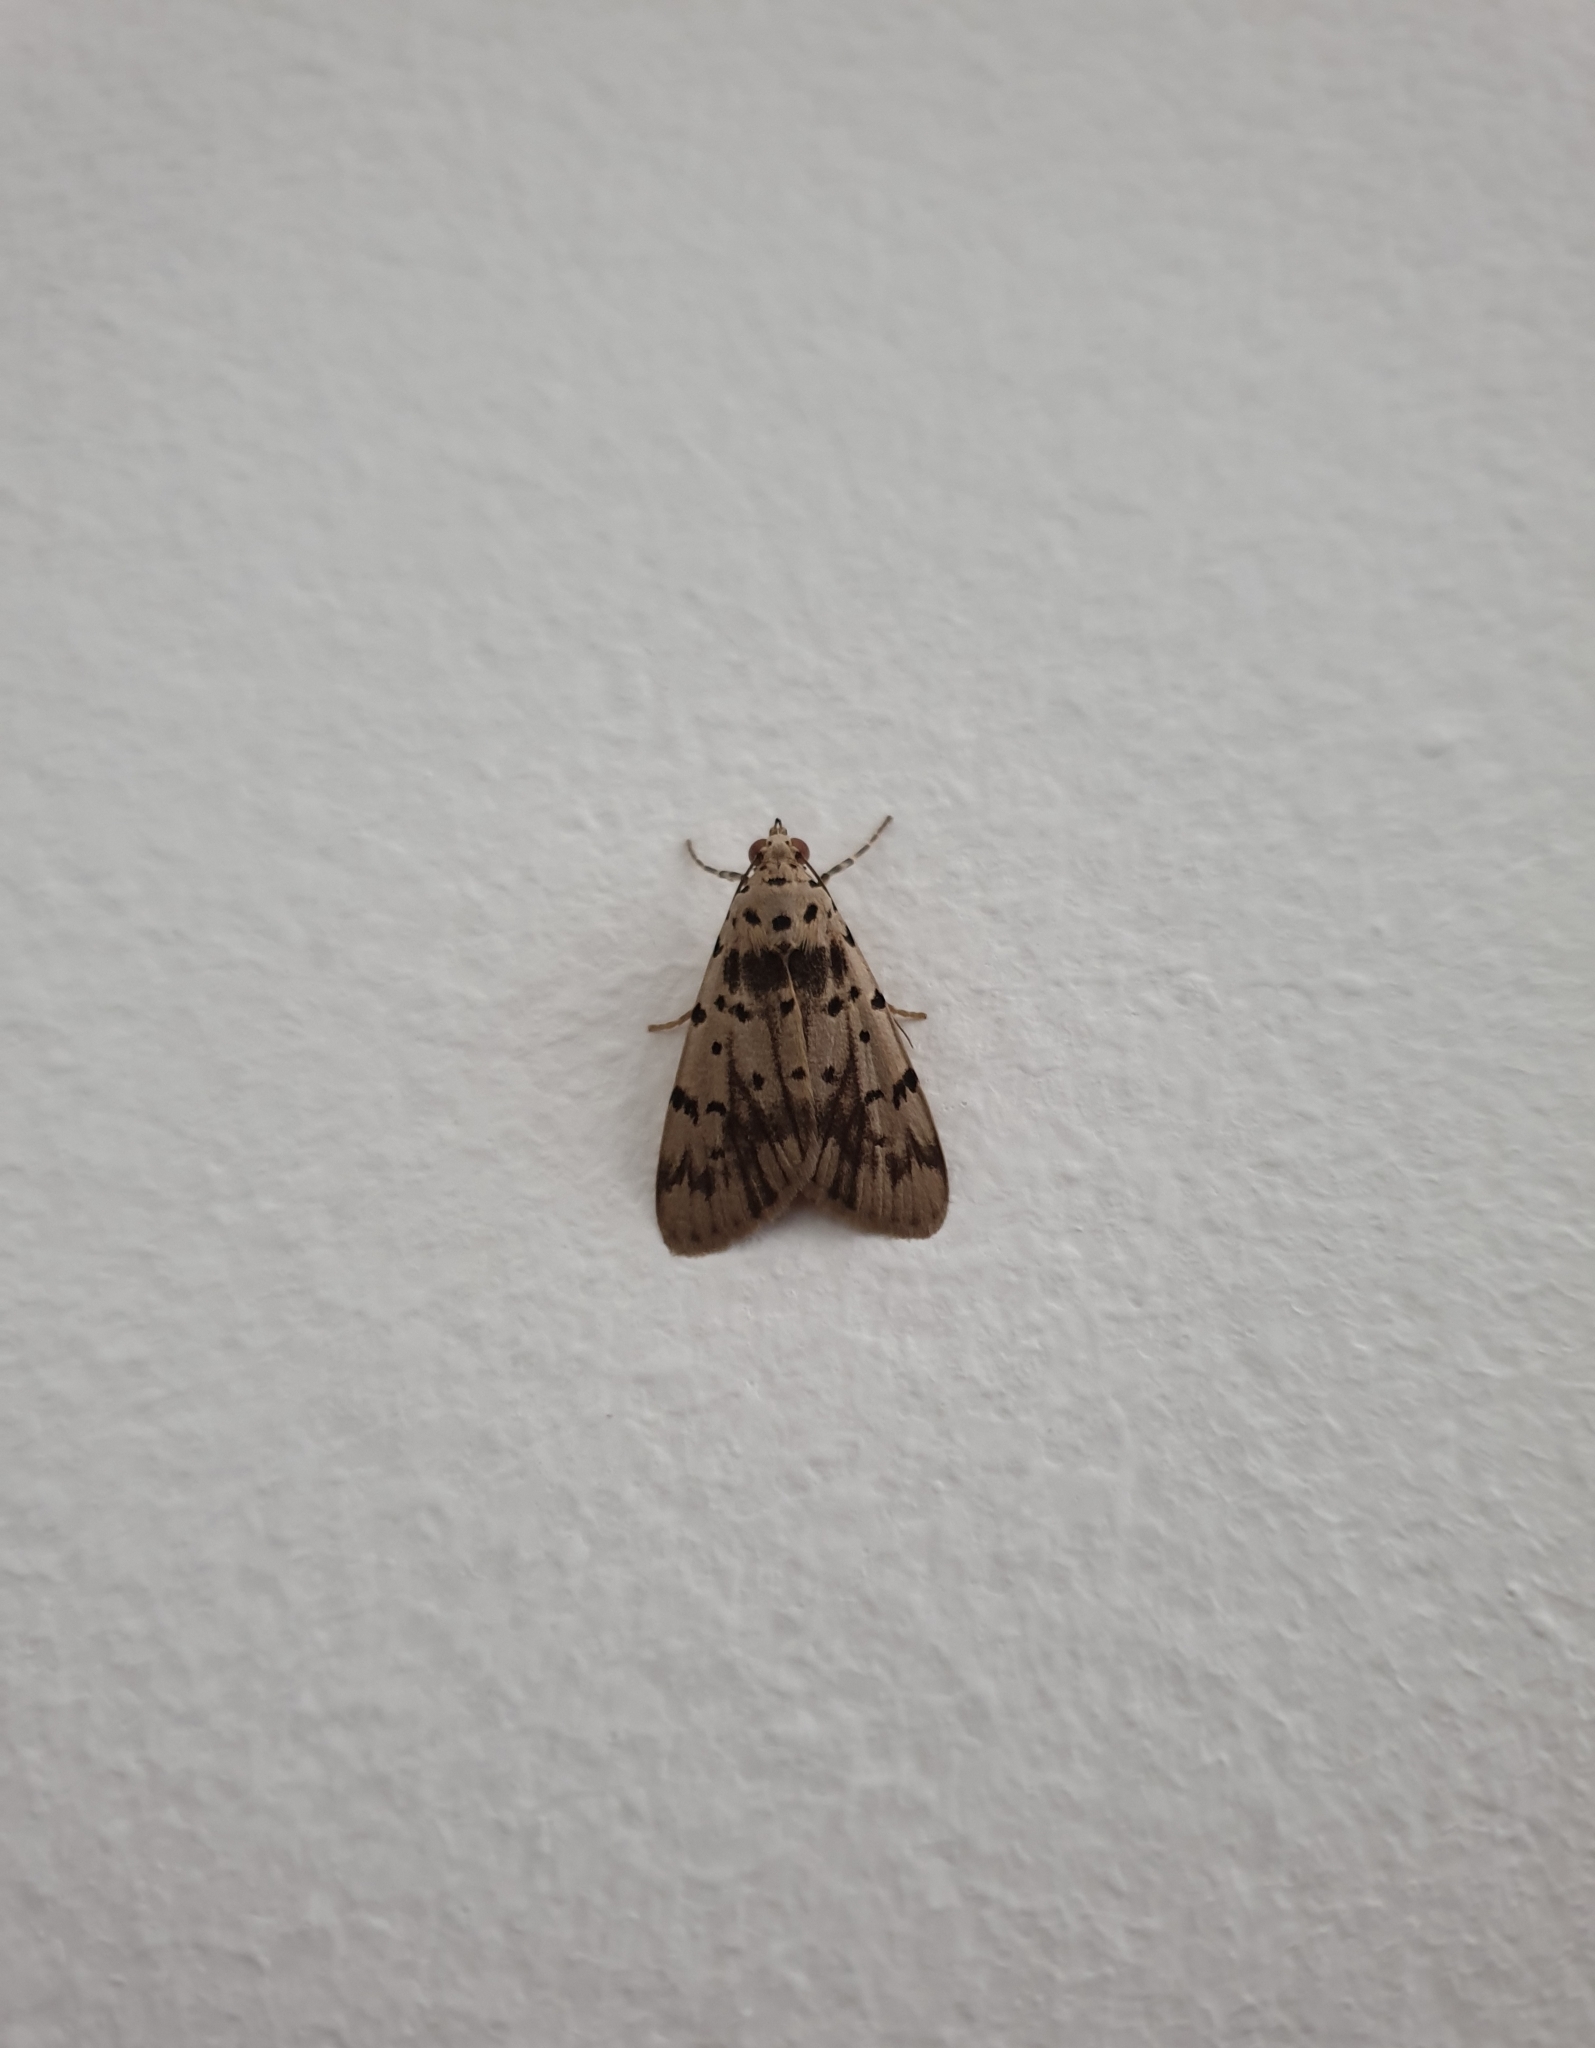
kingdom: Animalia
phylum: Arthropoda
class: Insecta
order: Lepidoptera
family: Erebidae
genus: Digama
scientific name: Digama
